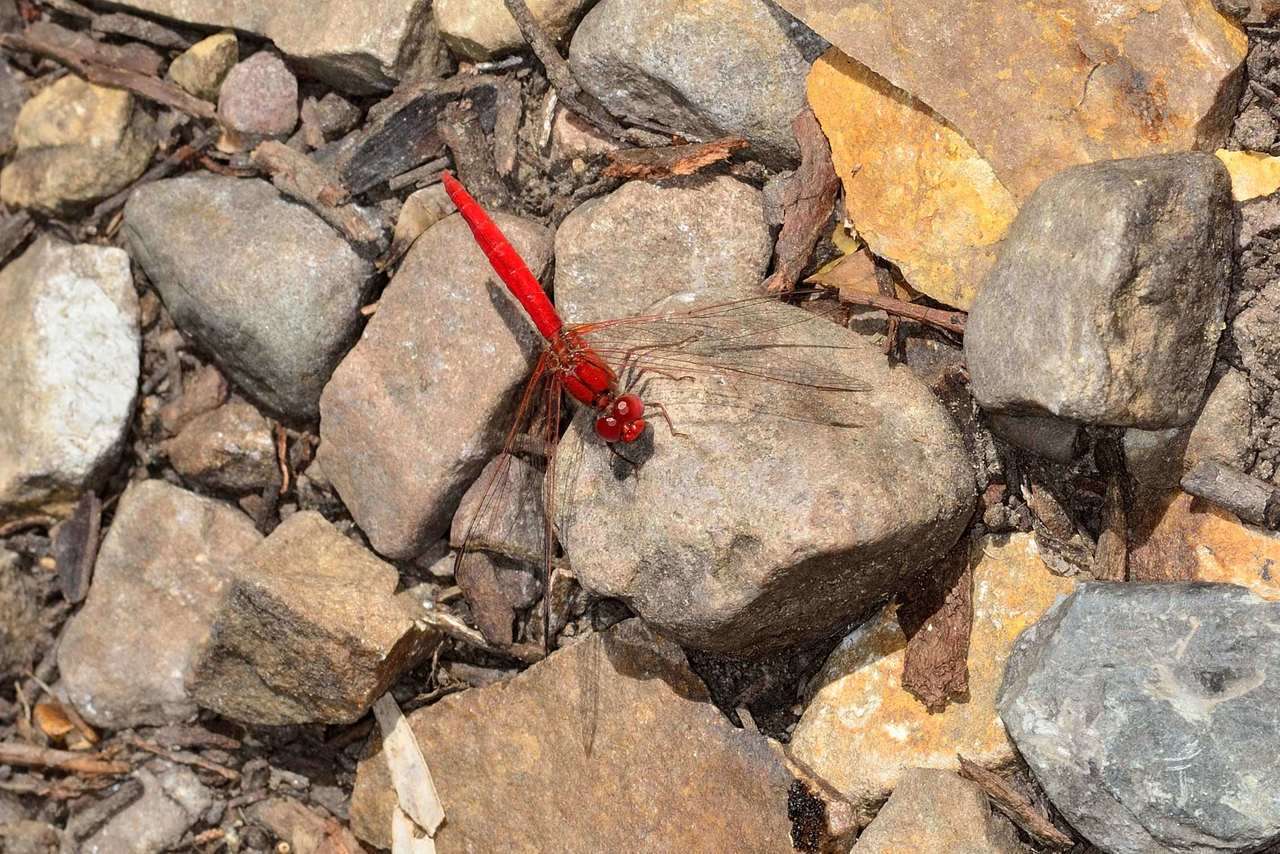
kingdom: Animalia
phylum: Arthropoda
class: Insecta
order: Odonata
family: Libellulidae
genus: Diplacodes
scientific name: Diplacodes haematodes
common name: Scarlet percher
